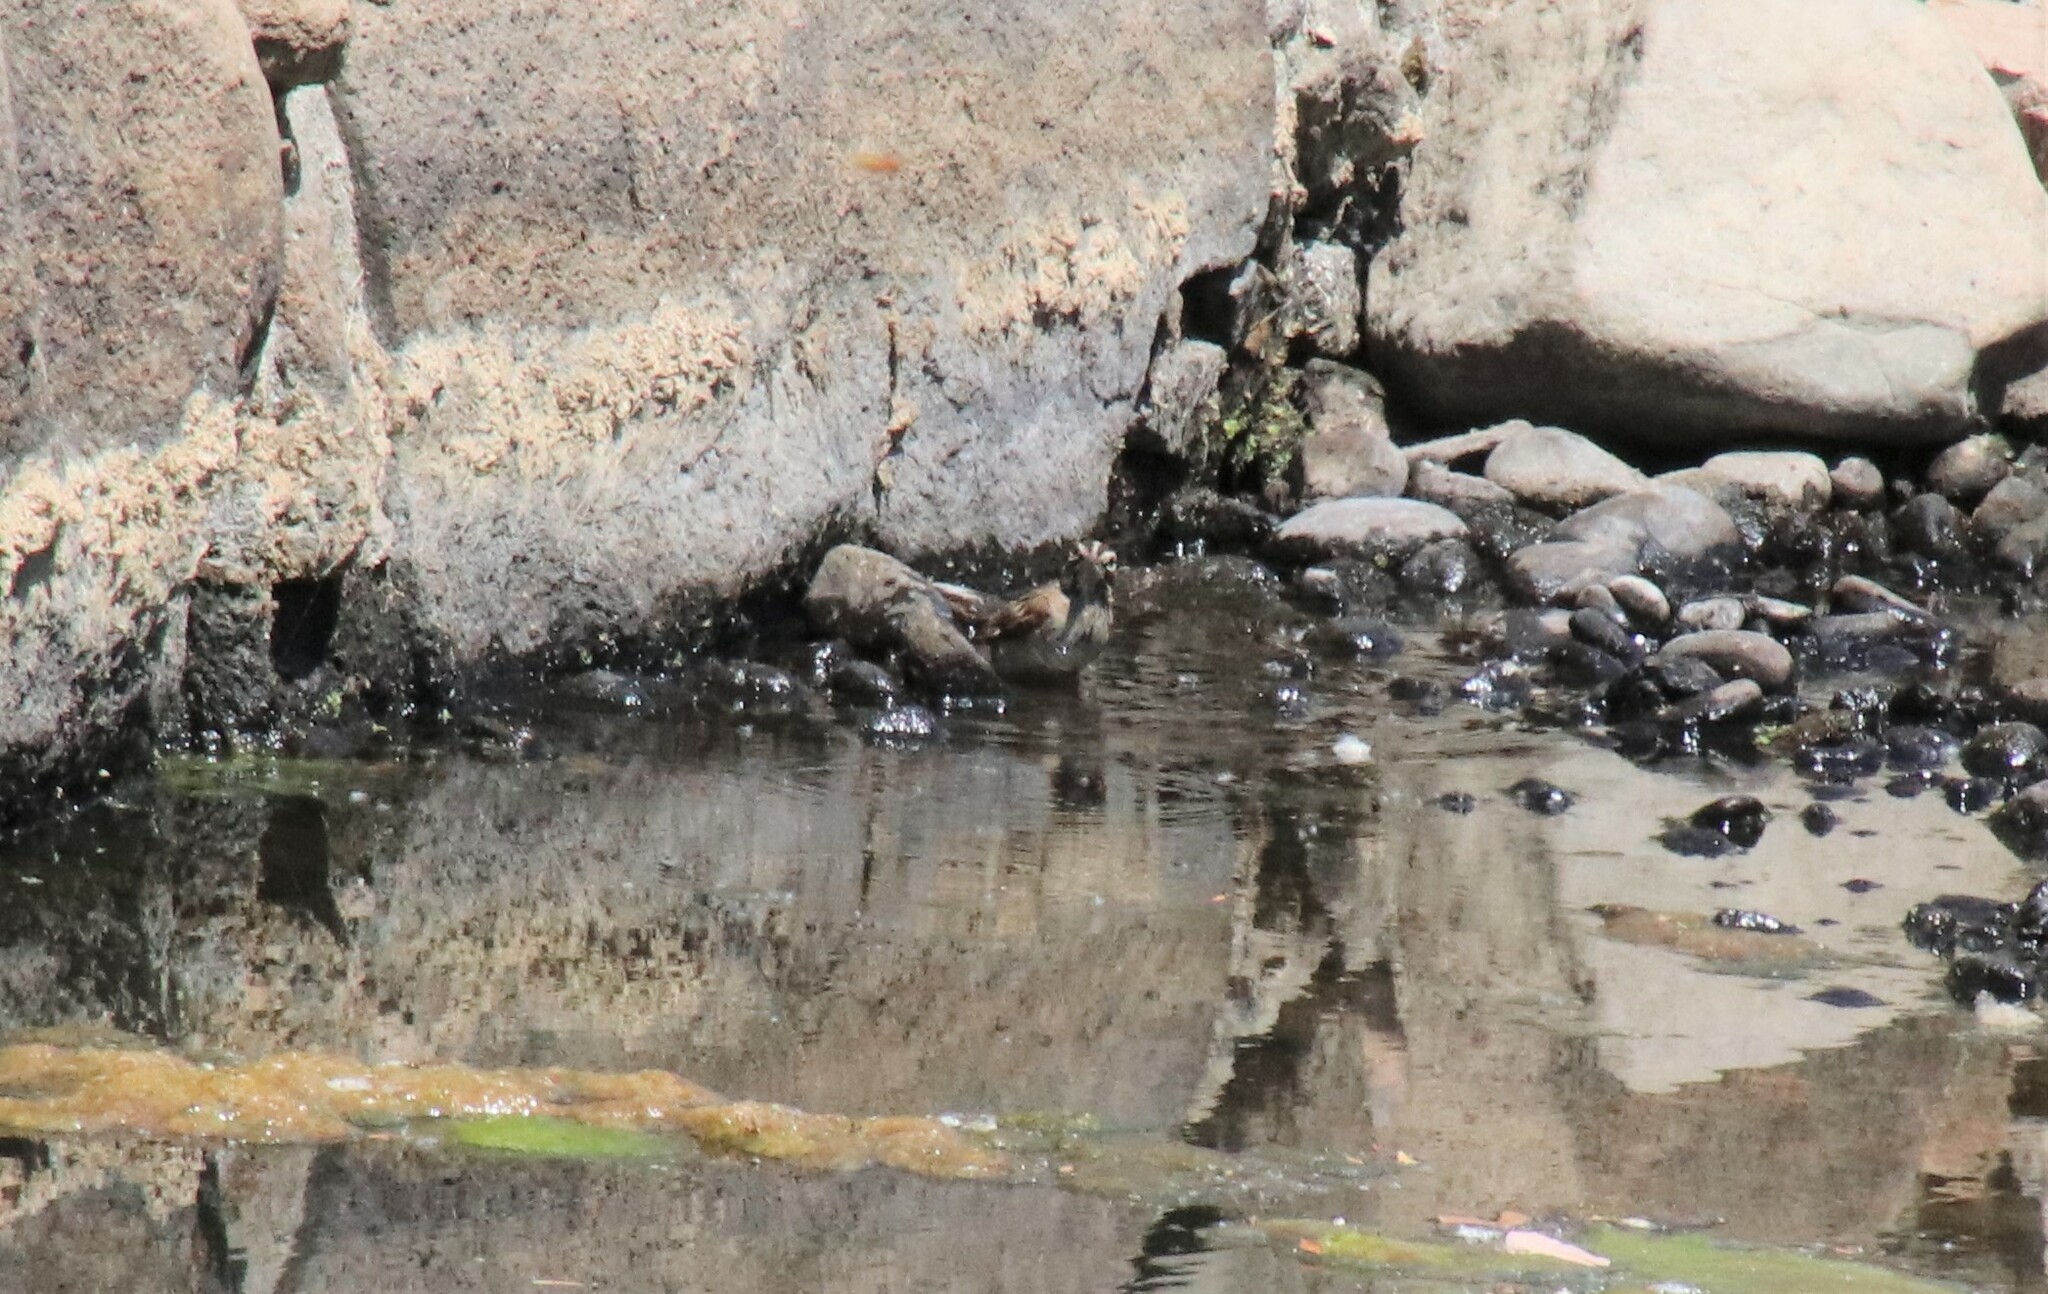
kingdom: Animalia
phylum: Chordata
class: Aves
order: Passeriformes
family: Passerellidae
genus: Chondestes
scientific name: Chondestes grammacus
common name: Lark sparrow
